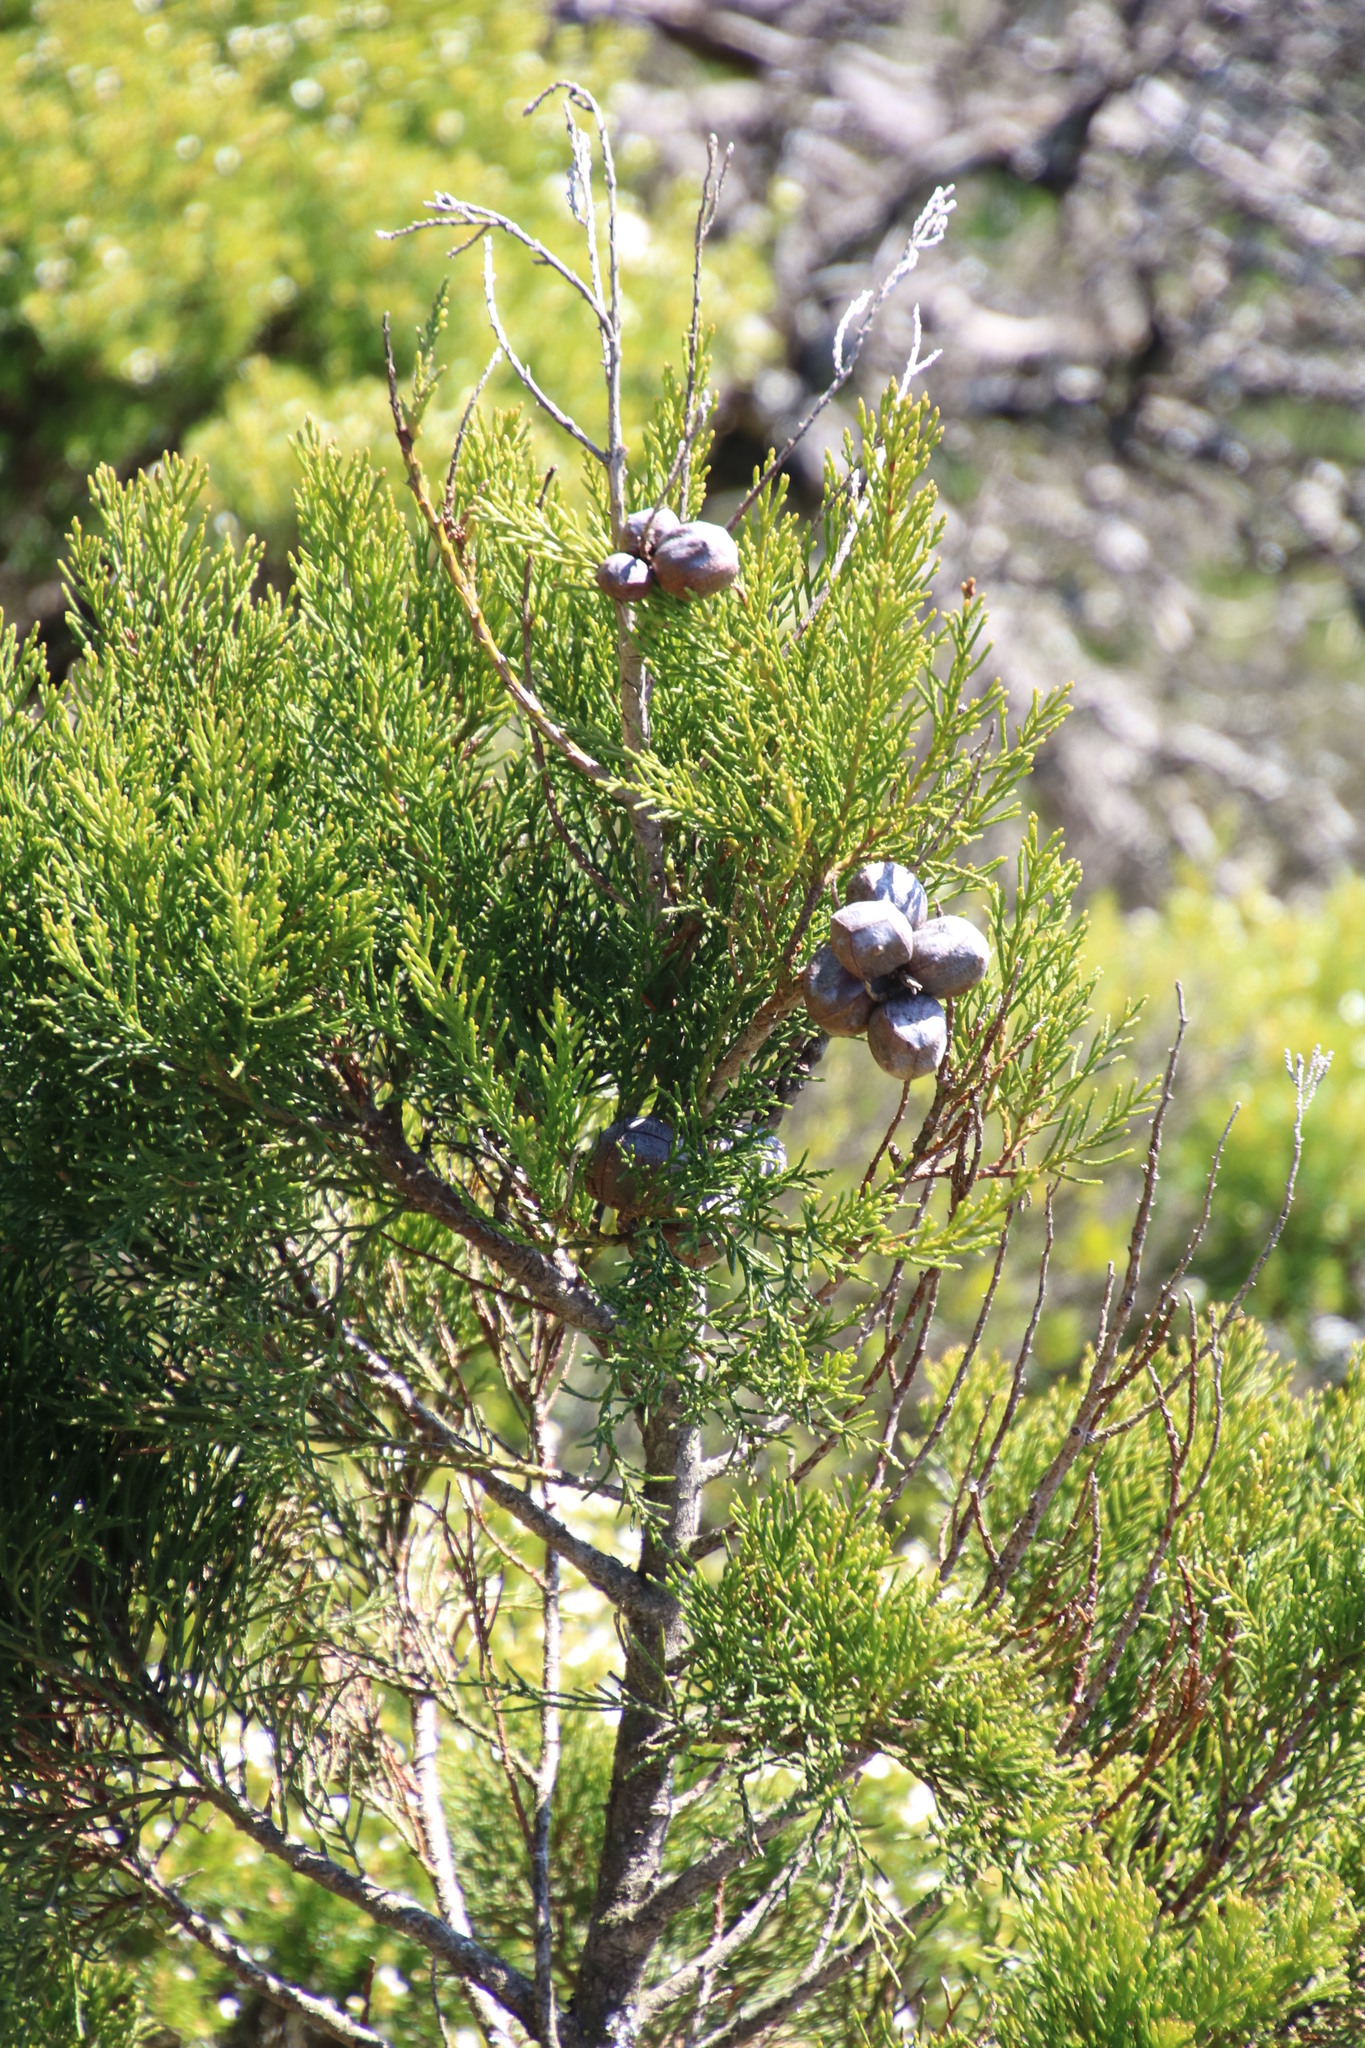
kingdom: Plantae
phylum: Tracheophyta
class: Pinopsida
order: Pinales
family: Cupressaceae
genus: Widdringtonia
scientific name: Widdringtonia nodiflora
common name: Cape cypress
